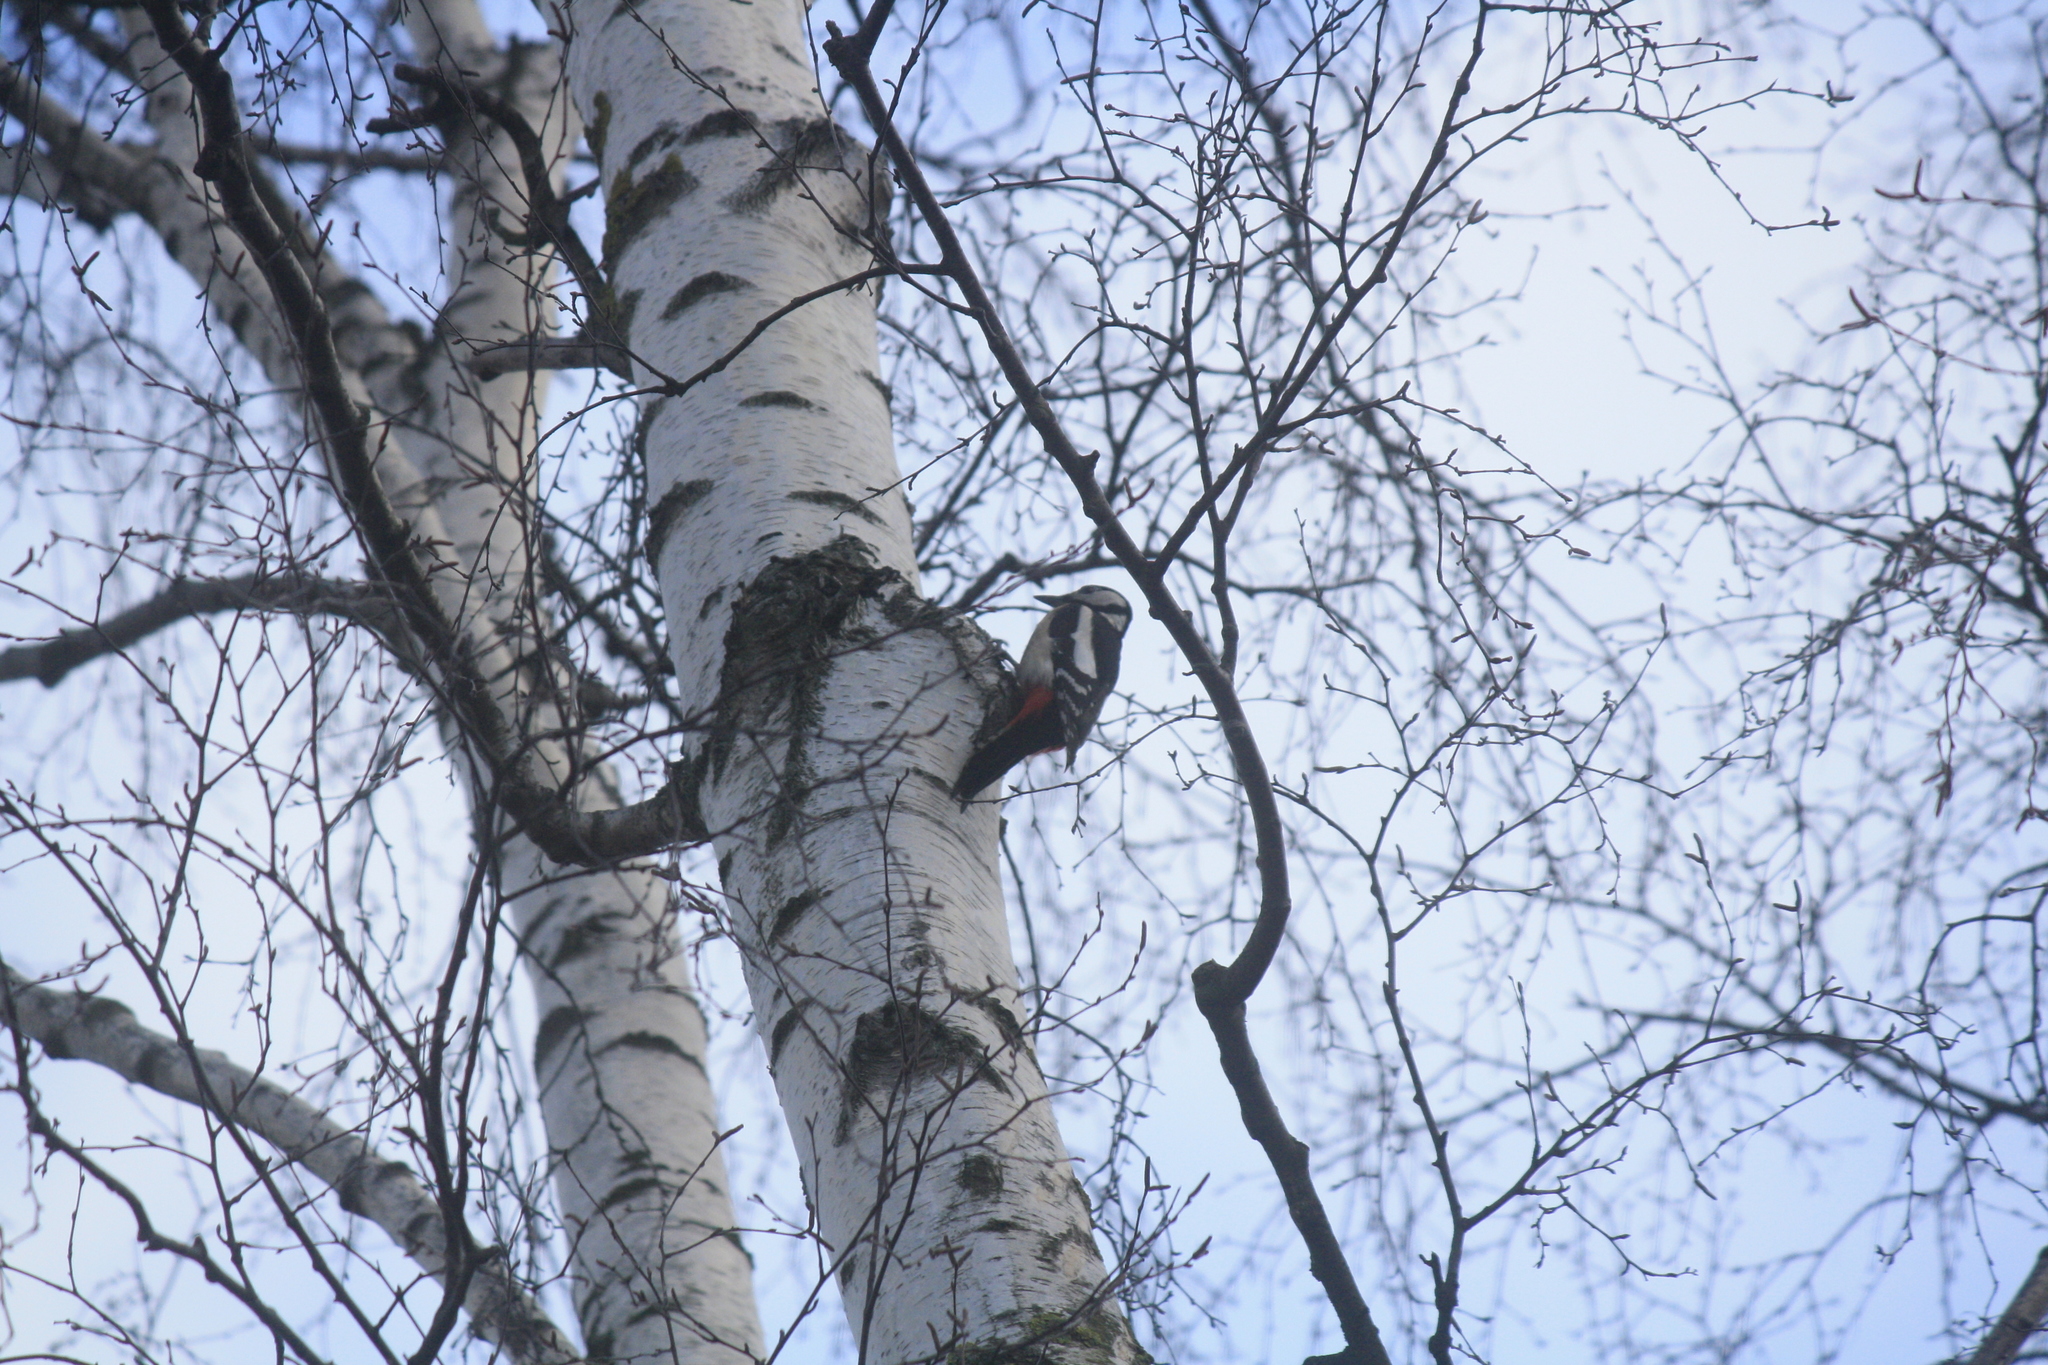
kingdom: Animalia
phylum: Chordata
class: Aves
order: Piciformes
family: Picidae
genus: Dendrocopos
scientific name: Dendrocopos major
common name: Great spotted woodpecker
